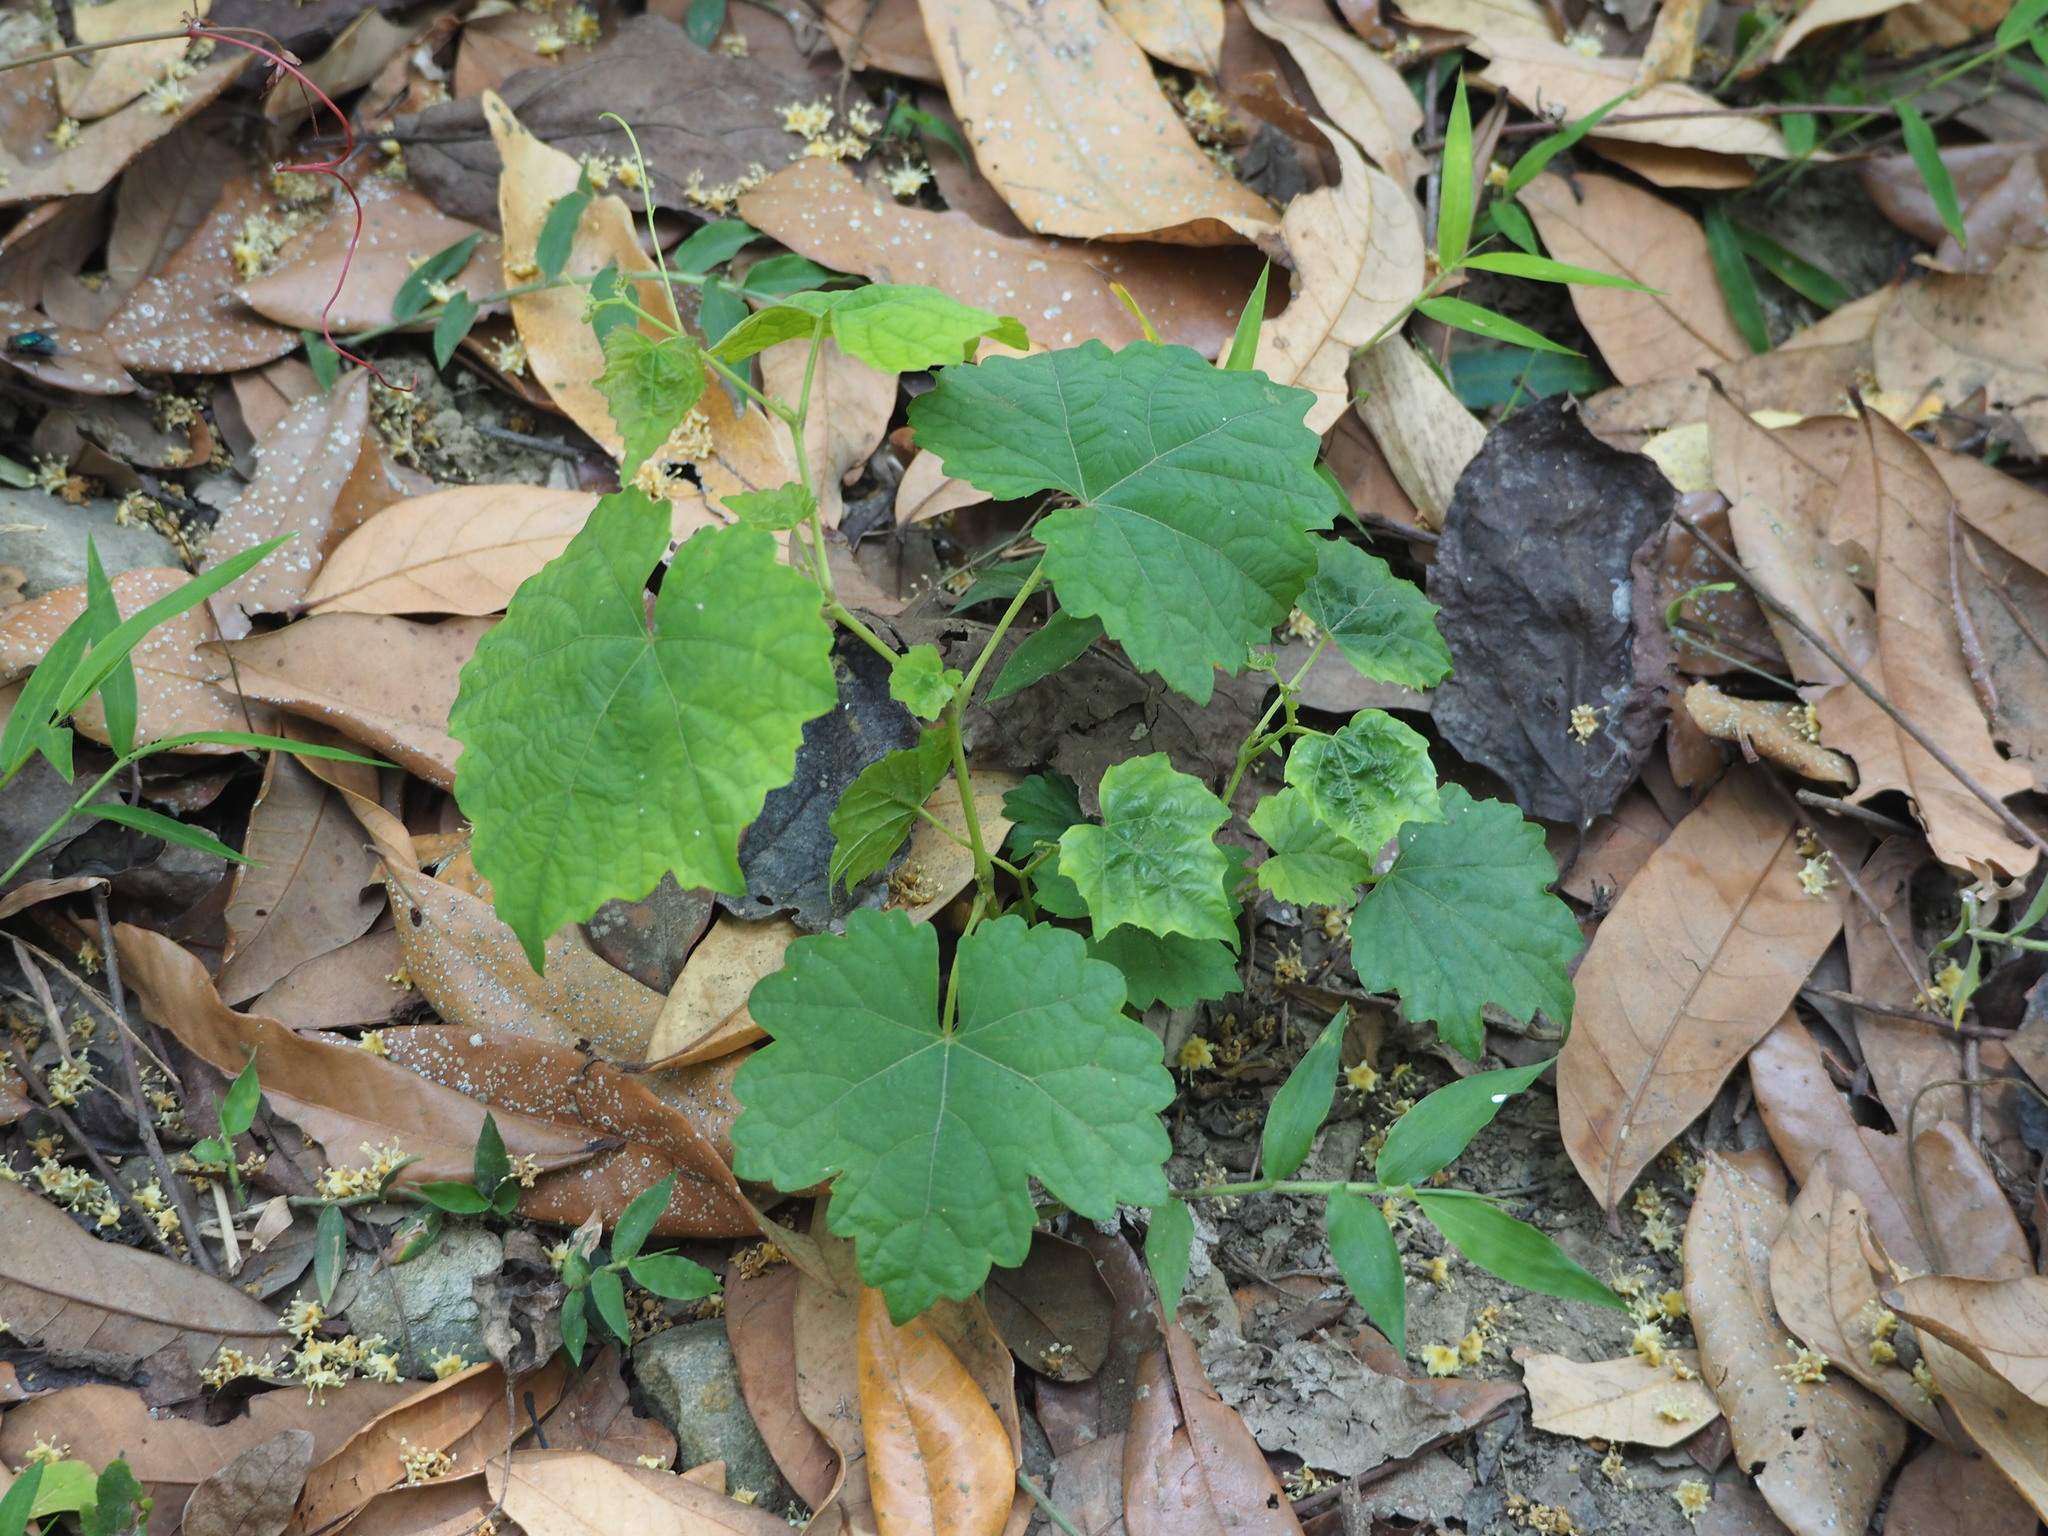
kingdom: Plantae
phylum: Tracheophyta
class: Magnoliopsida
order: Vitales
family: Vitaceae
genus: Ampelopsis
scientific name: Ampelopsis glandulosa
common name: Amur peppervine
